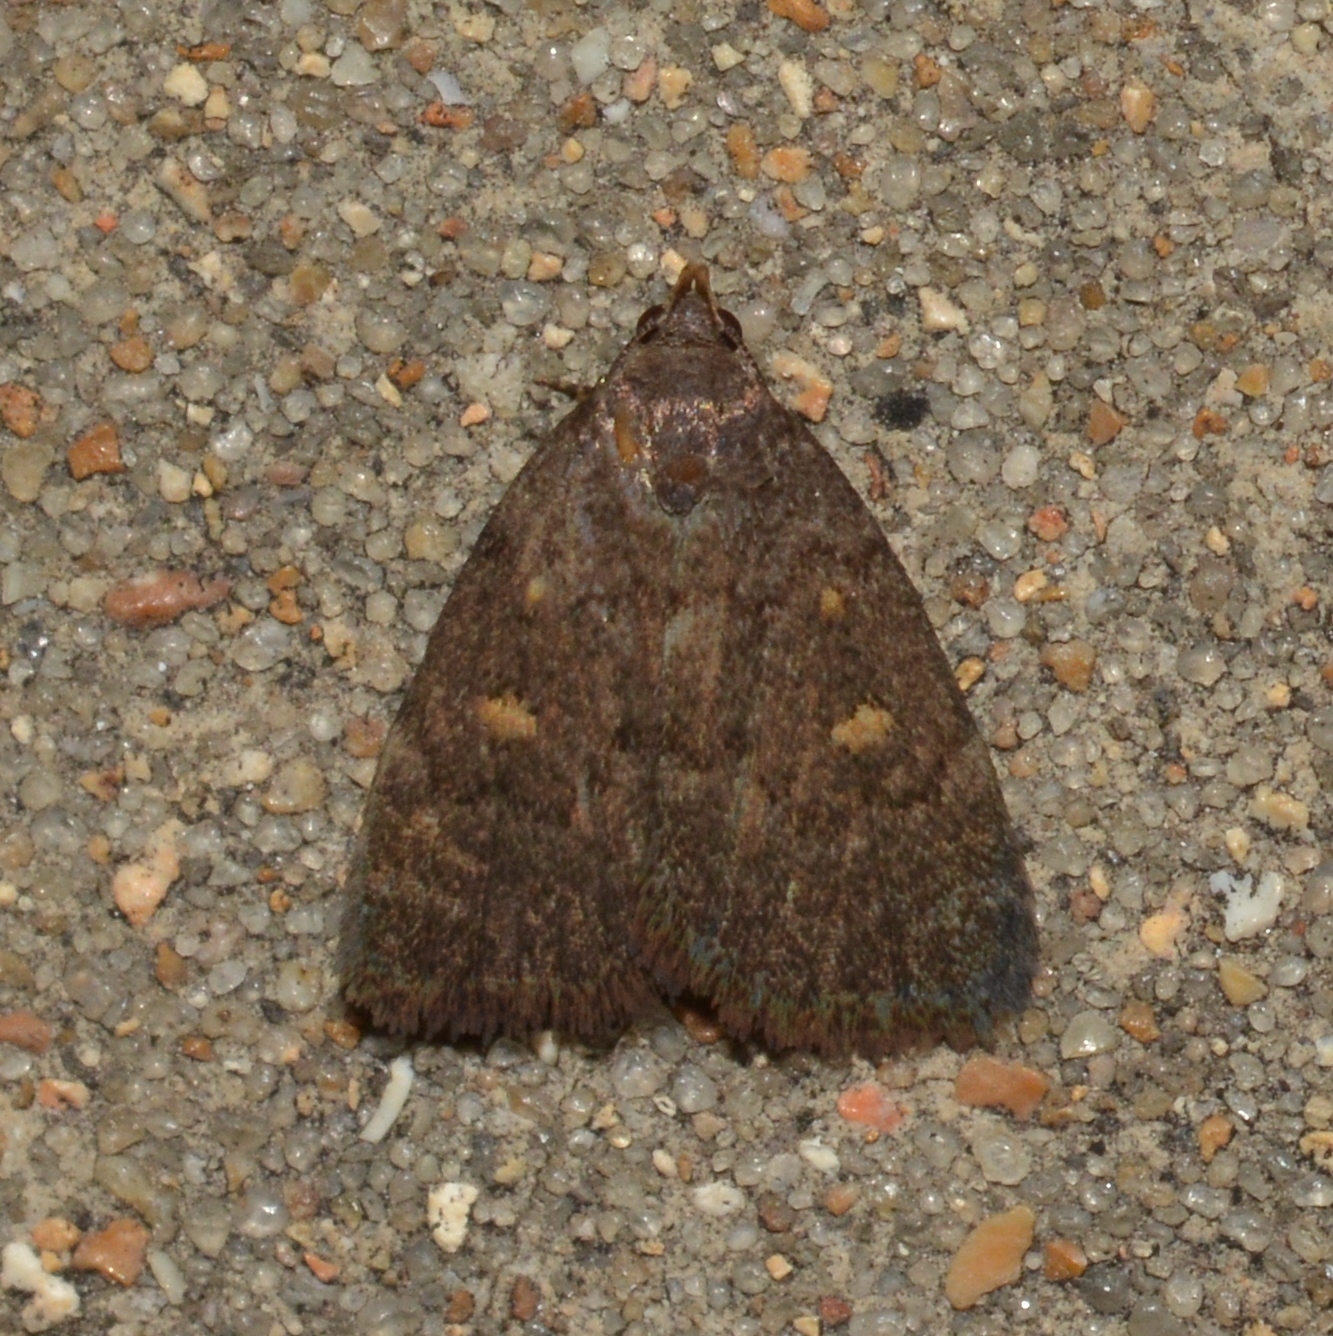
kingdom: Animalia
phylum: Arthropoda
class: Insecta
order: Lepidoptera
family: Erebidae
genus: Idia
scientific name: Idia diminuendis
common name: Orange-spotted idia moth
